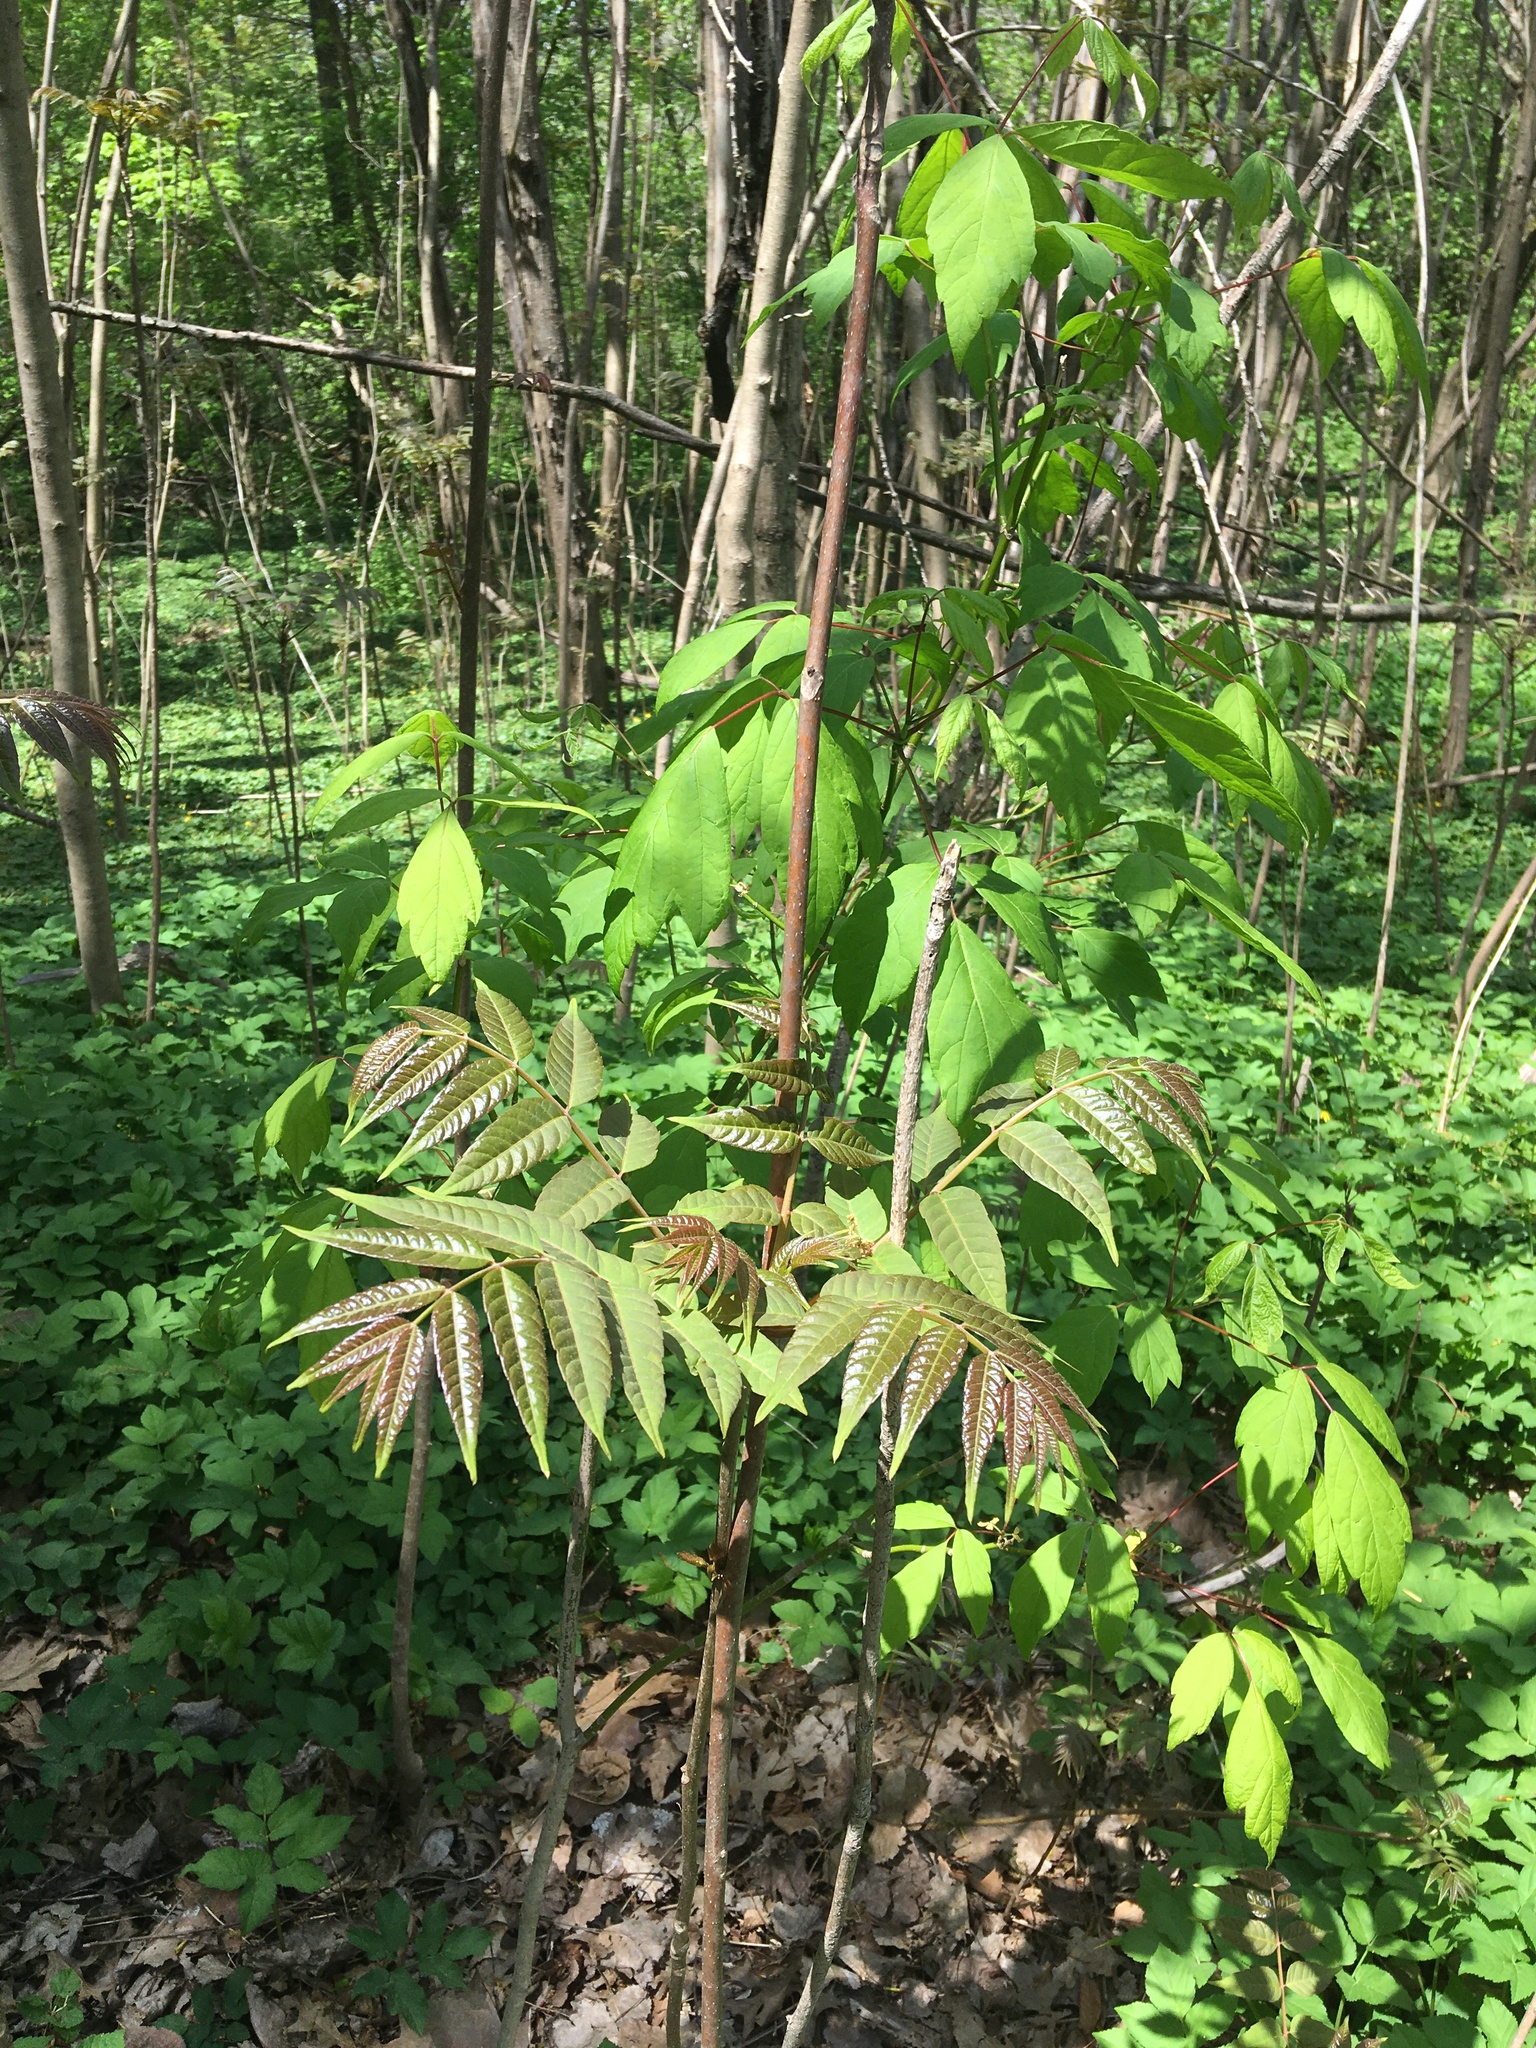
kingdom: Plantae
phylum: Tracheophyta
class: Magnoliopsida
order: Sapindales
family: Meliaceae
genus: Toona
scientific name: Toona sinensis
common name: Red toon
